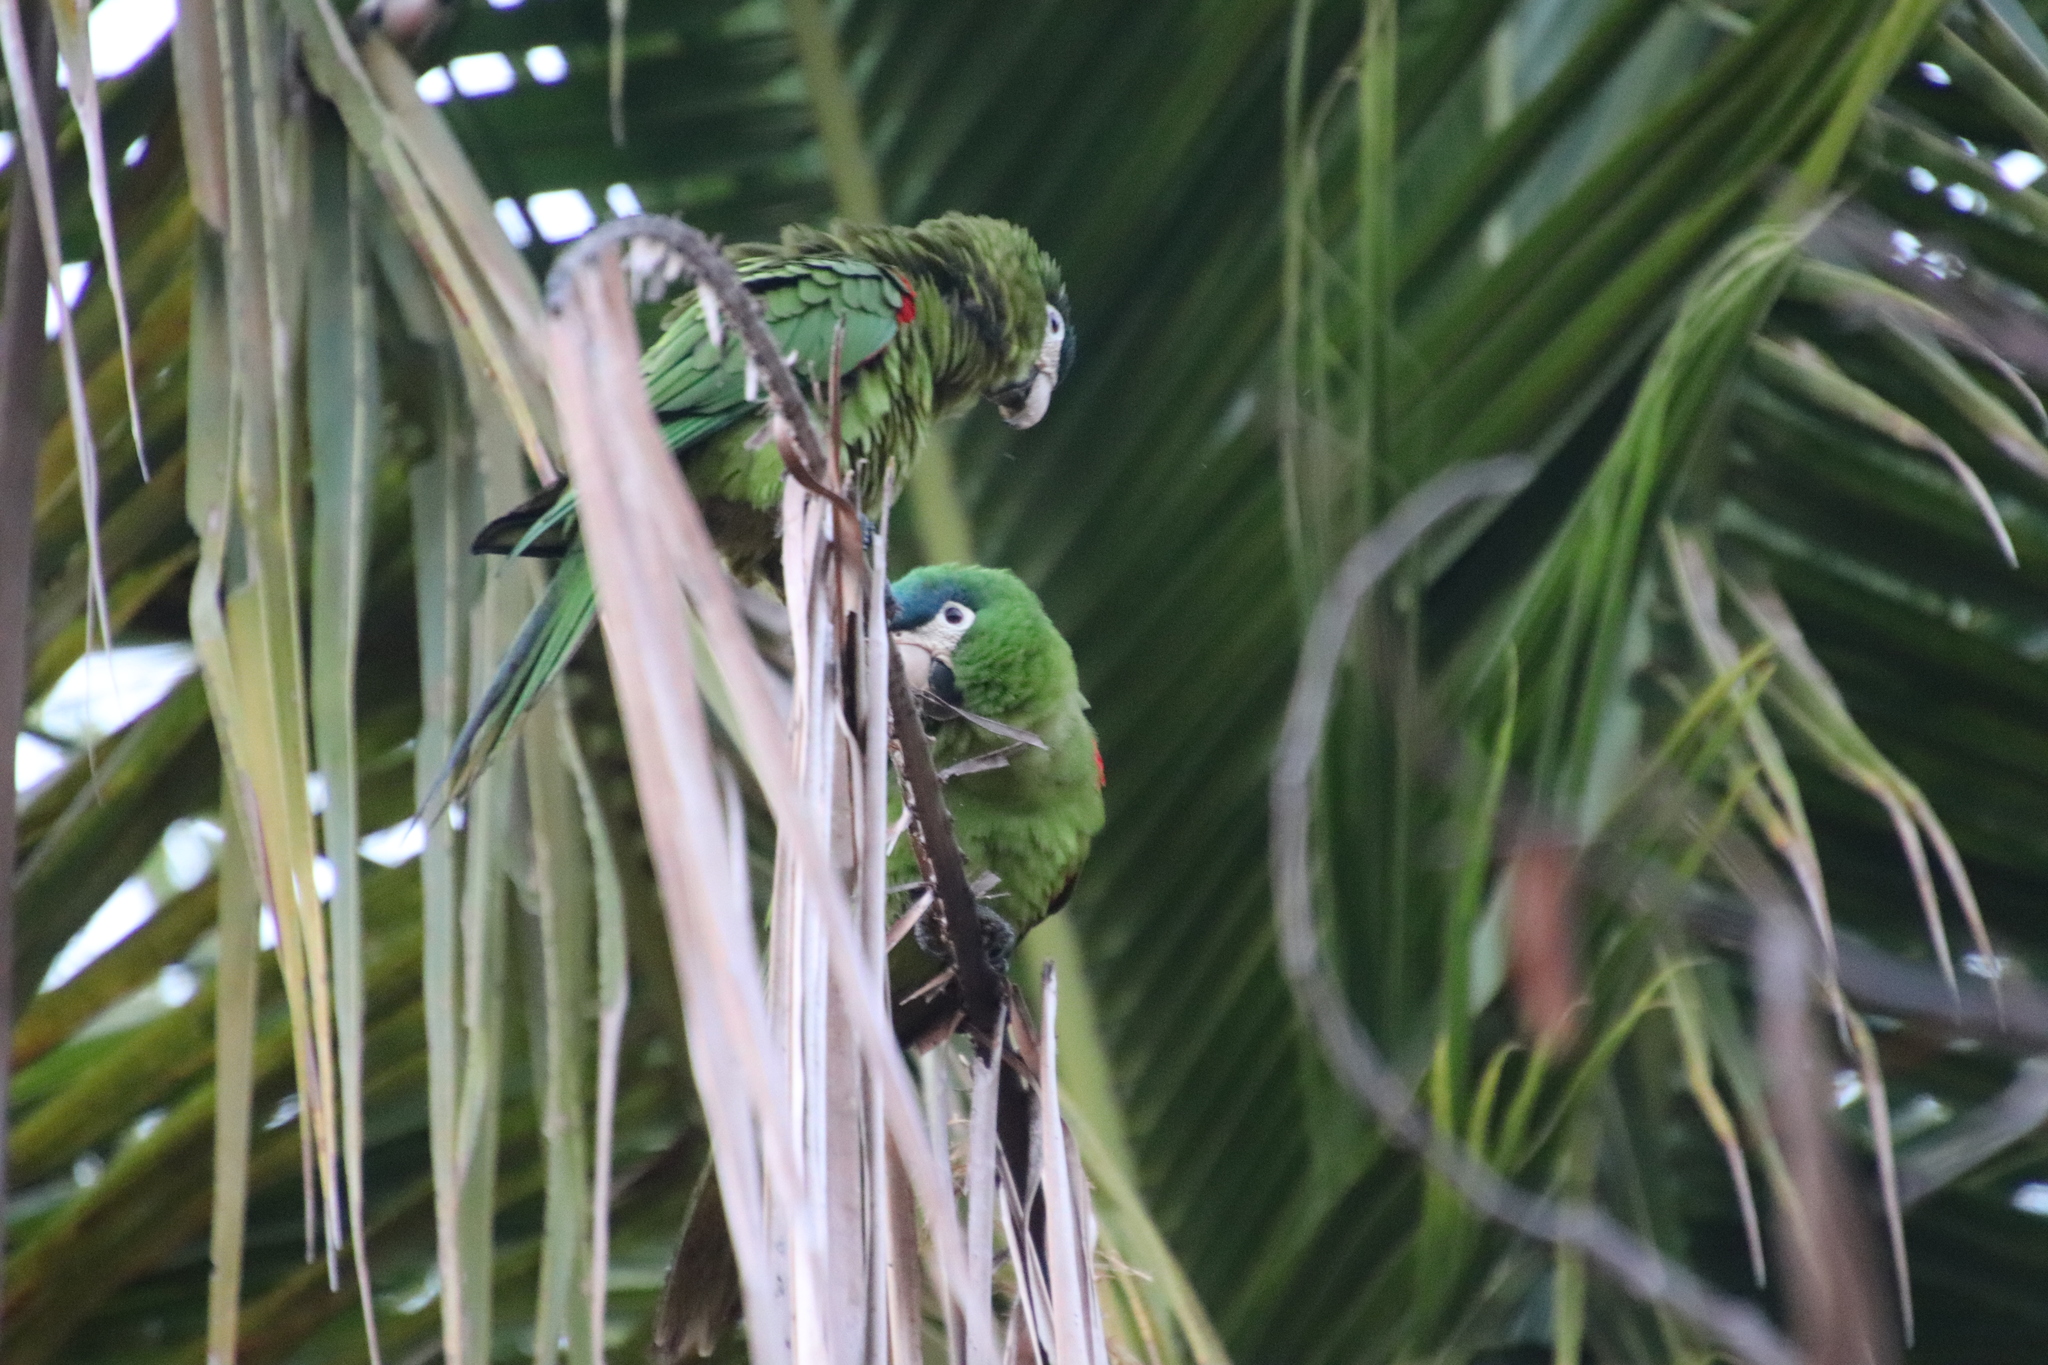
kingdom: Animalia
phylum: Chordata
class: Aves
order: Psittaciformes
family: Psittacidae
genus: Diopsittaca
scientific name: Diopsittaca nobilis
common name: Red-shouldered macaw
